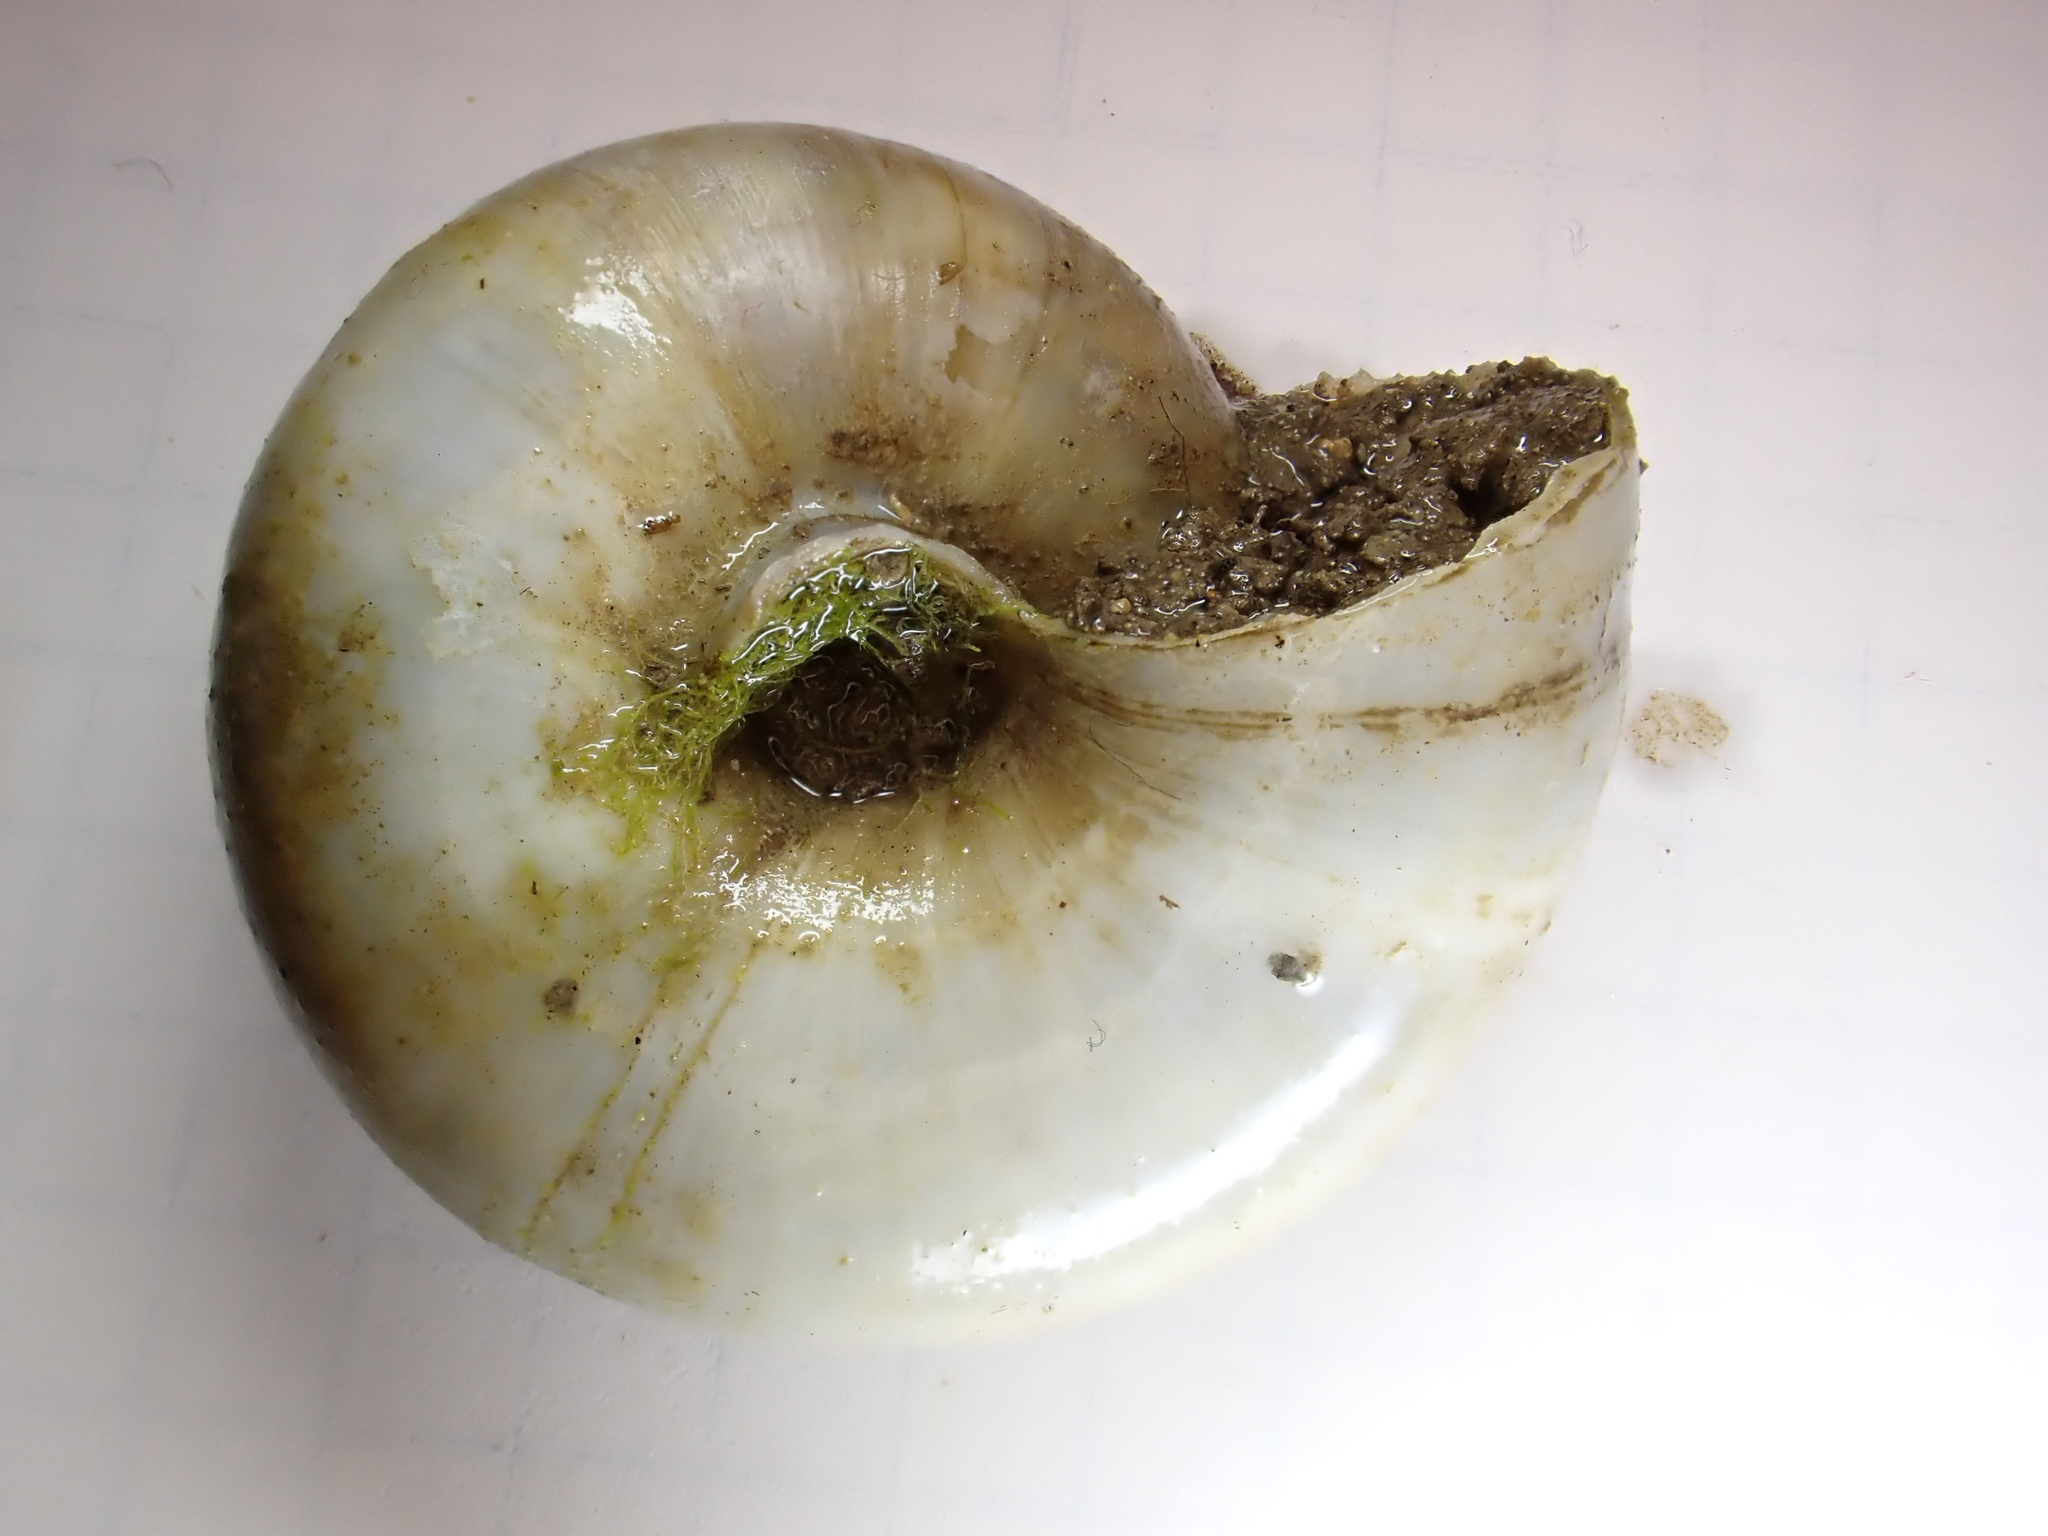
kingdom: Animalia
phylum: Mollusca
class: Gastropoda
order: Stylommatophora
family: Zonitidae
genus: Zonites
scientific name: Zonites algirus
